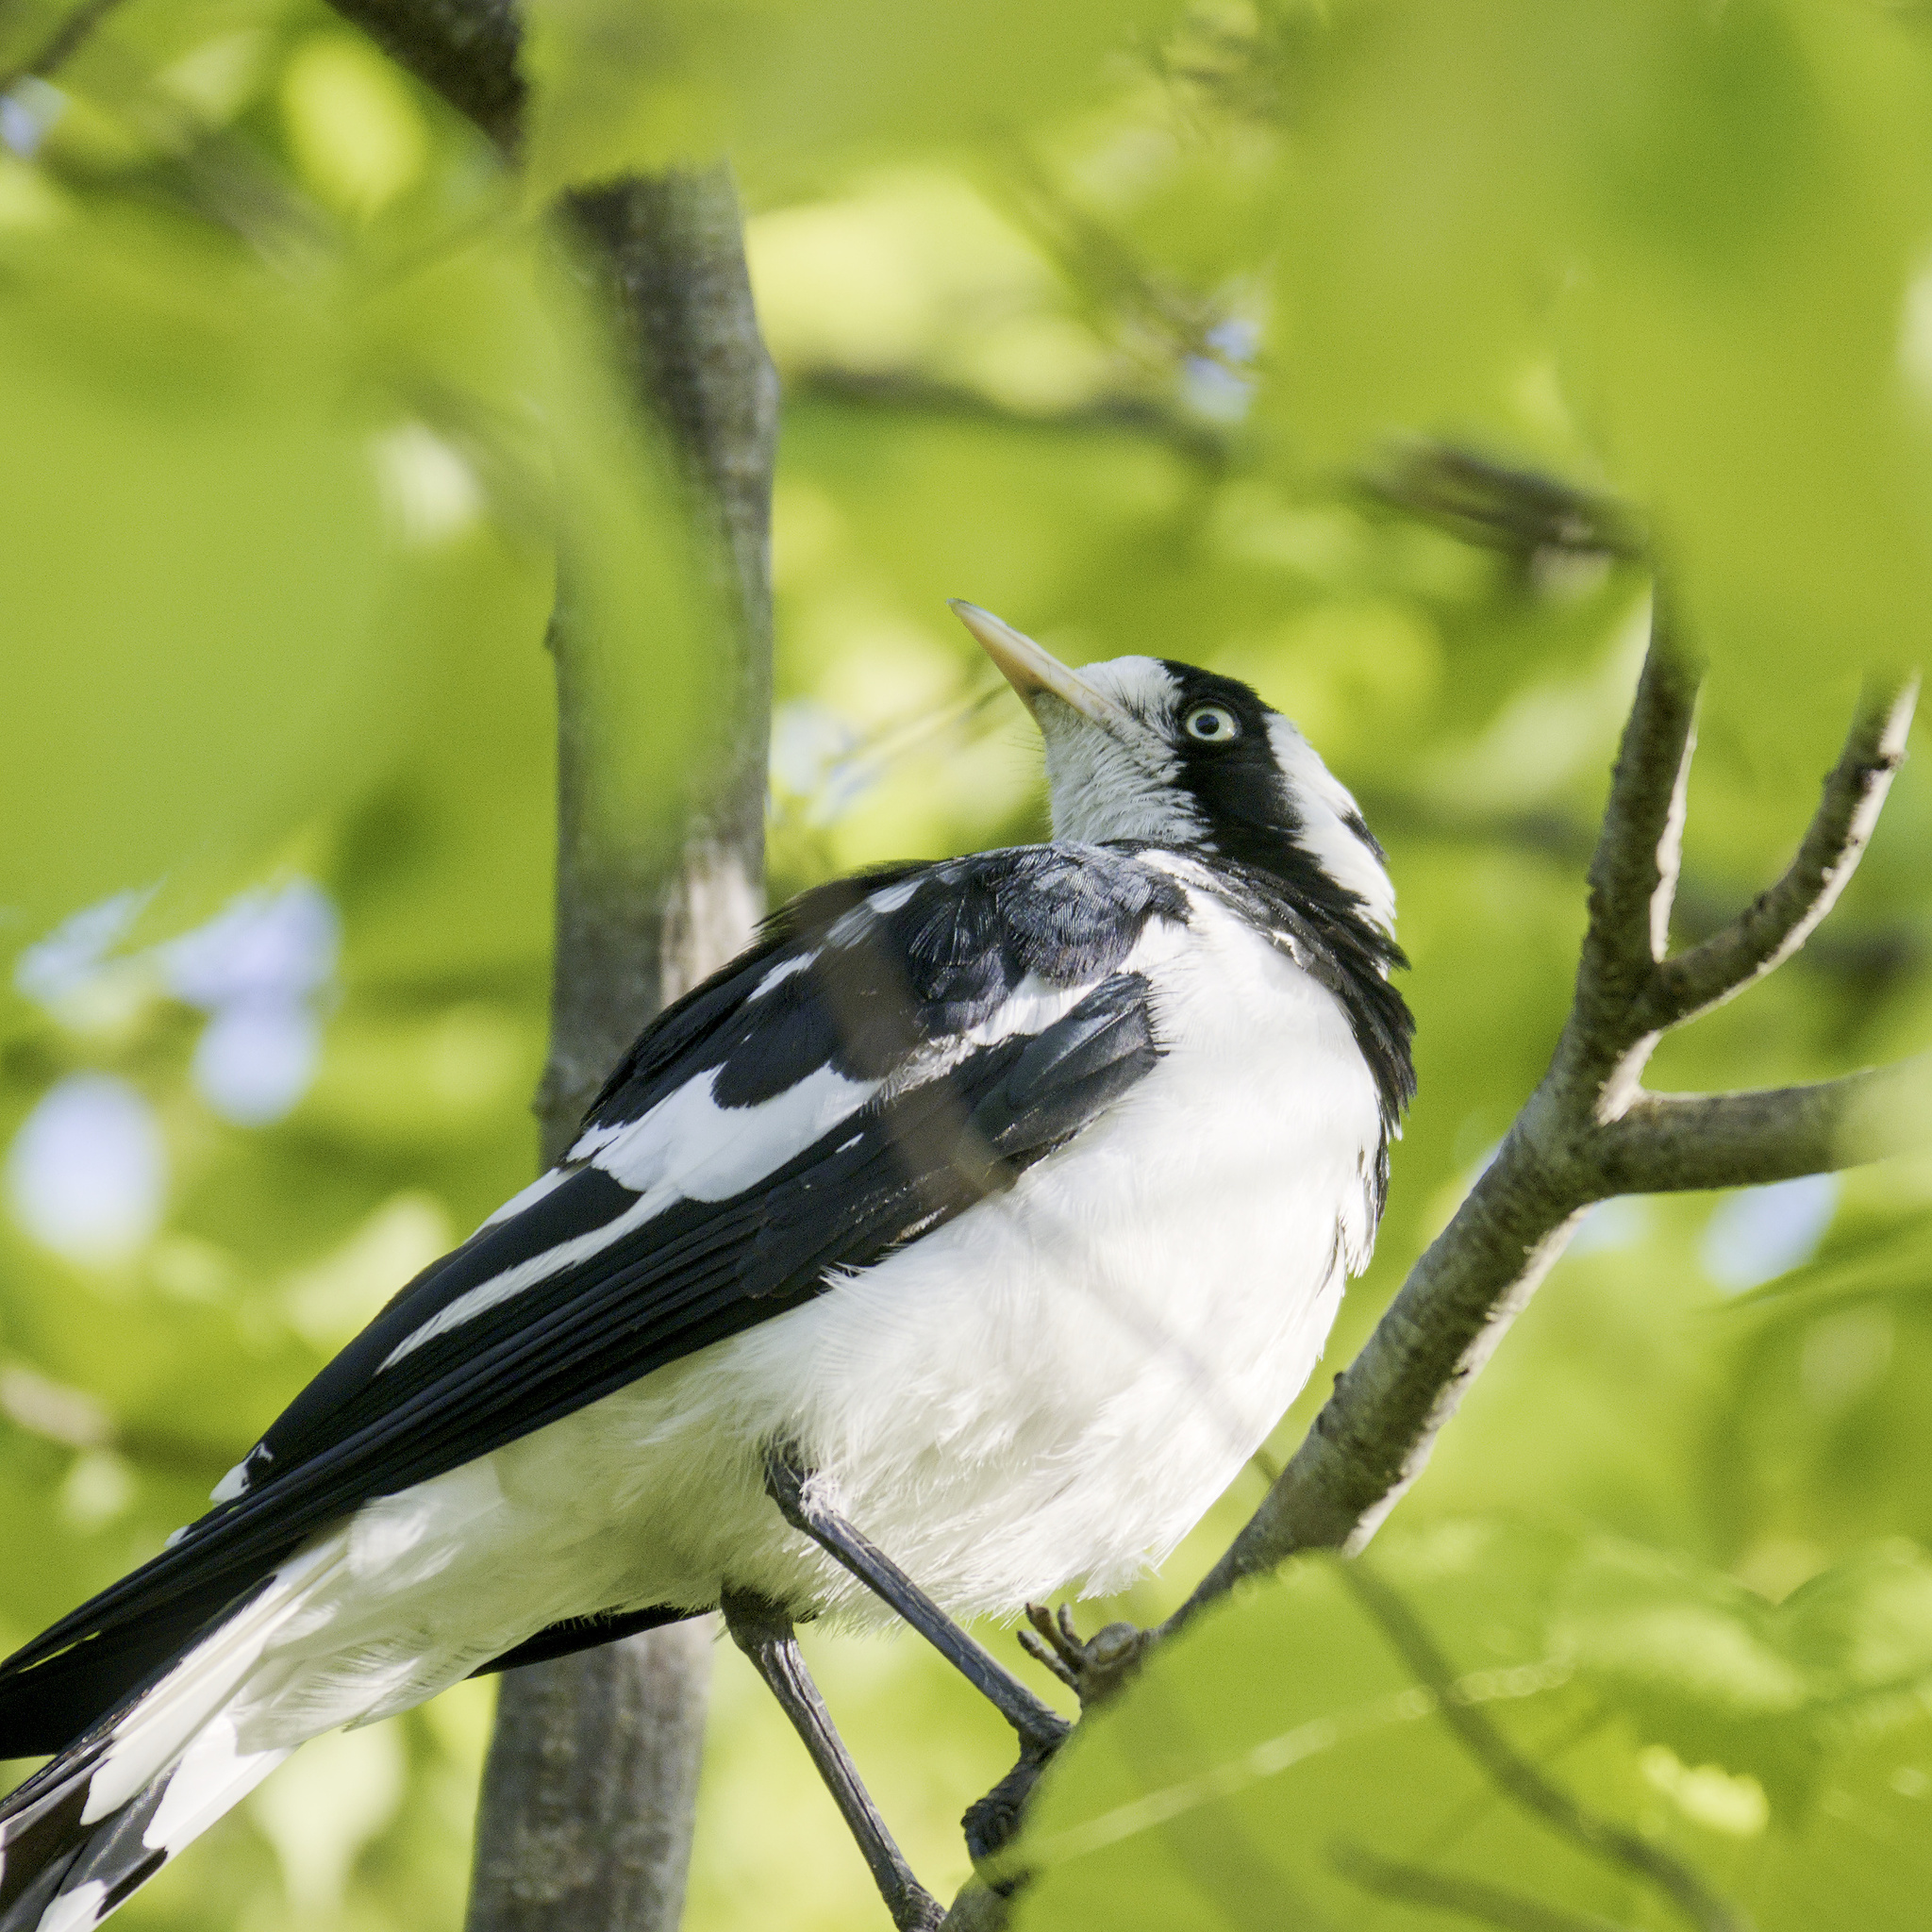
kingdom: Animalia
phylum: Chordata
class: Aves
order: Passeriformes
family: Monarchidae
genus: Grallina
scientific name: Grallina cyanoleuca
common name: Magpie-lark
